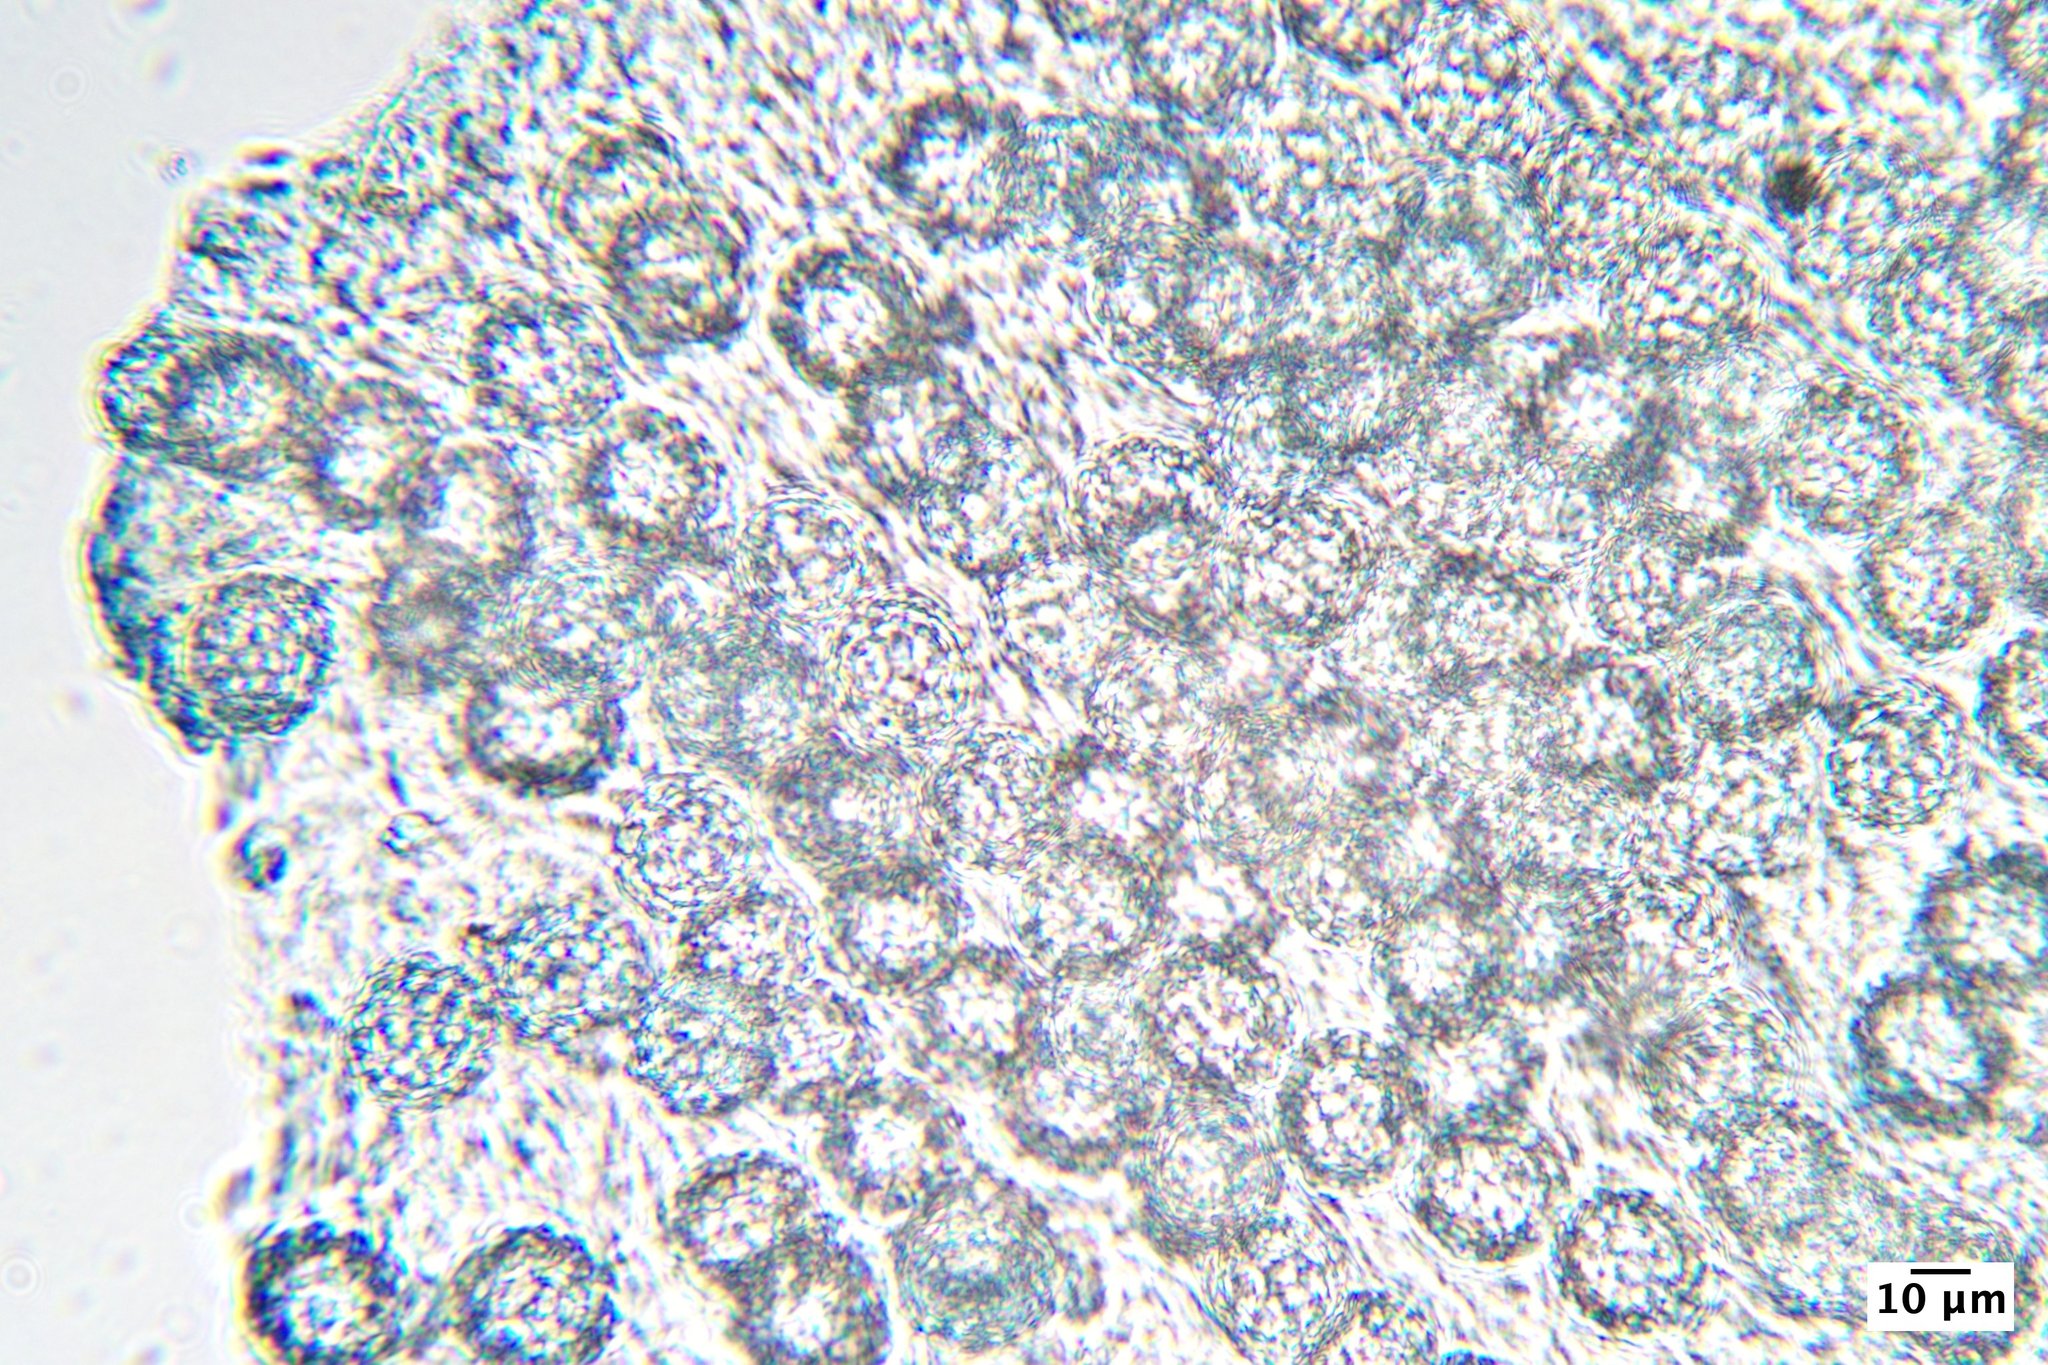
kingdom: Fungi
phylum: Ascomycota
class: Pezizomycetes
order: Pezizales
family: Pyronemataceae
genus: Genea
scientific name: Genea gardneri
